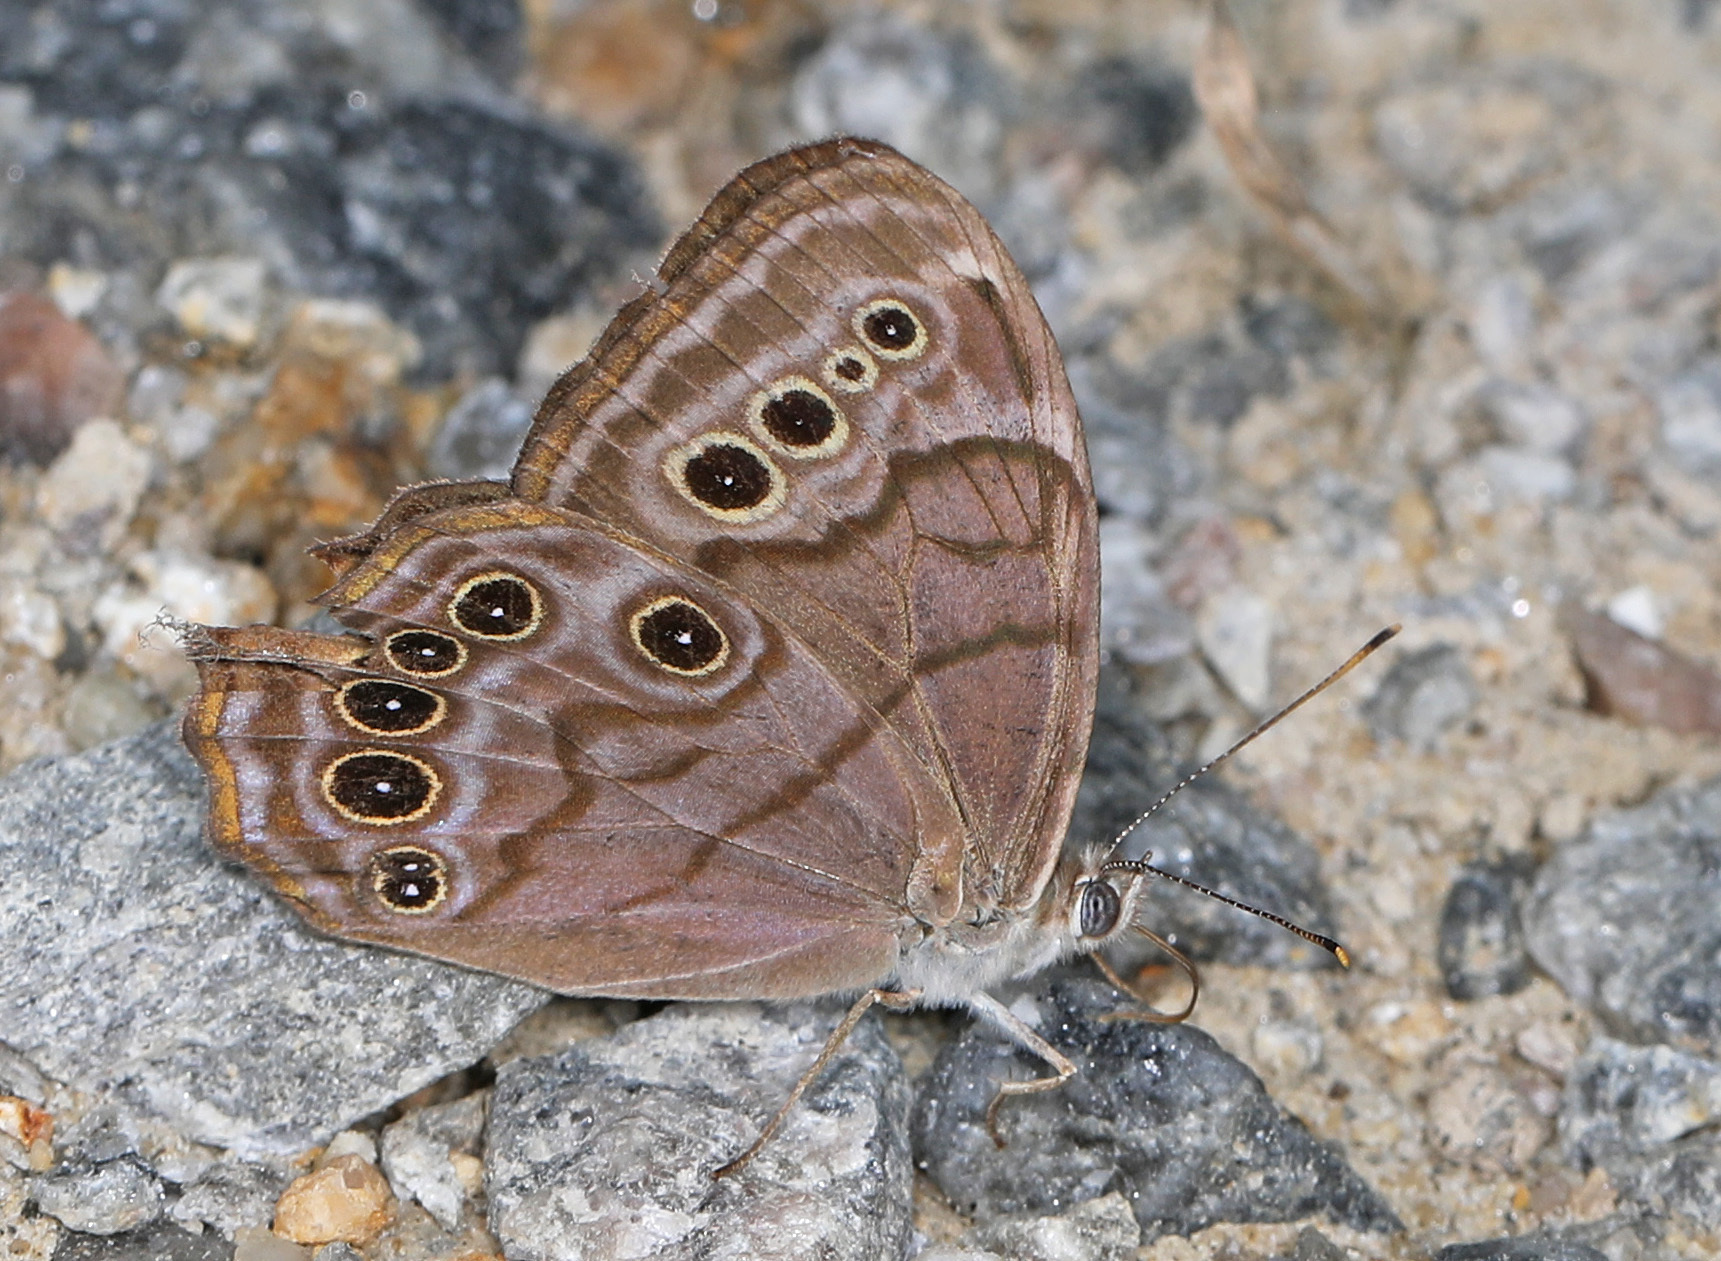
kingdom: Animalia
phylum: Arthropoda
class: Insecta
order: Lepidoptera
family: Nymphalidae
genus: Lethe
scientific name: Lethe anthedon
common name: Northern pearly-eye
